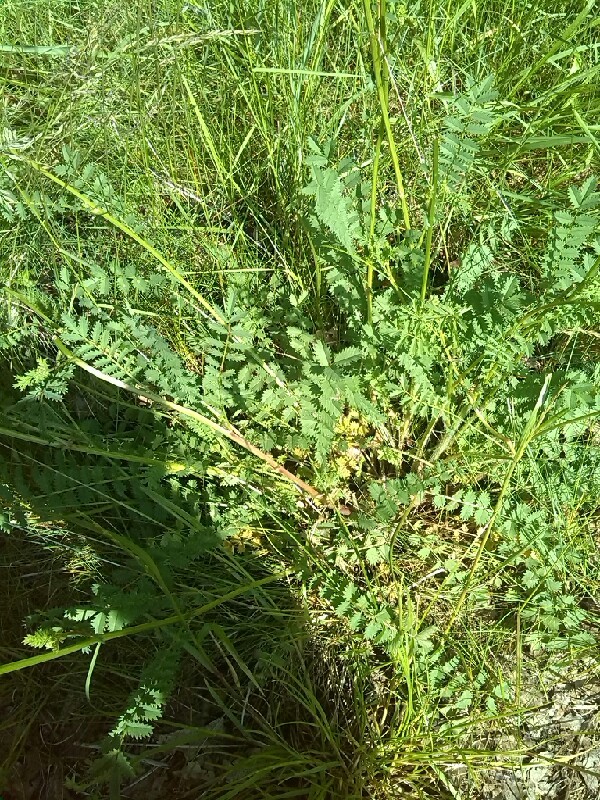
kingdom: Plantae
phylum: Tracheophyta
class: Magnoliopsida
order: Rosales
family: Rosaceae
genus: Poterium
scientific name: Poterium sanguisorba
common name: Salad burnet
